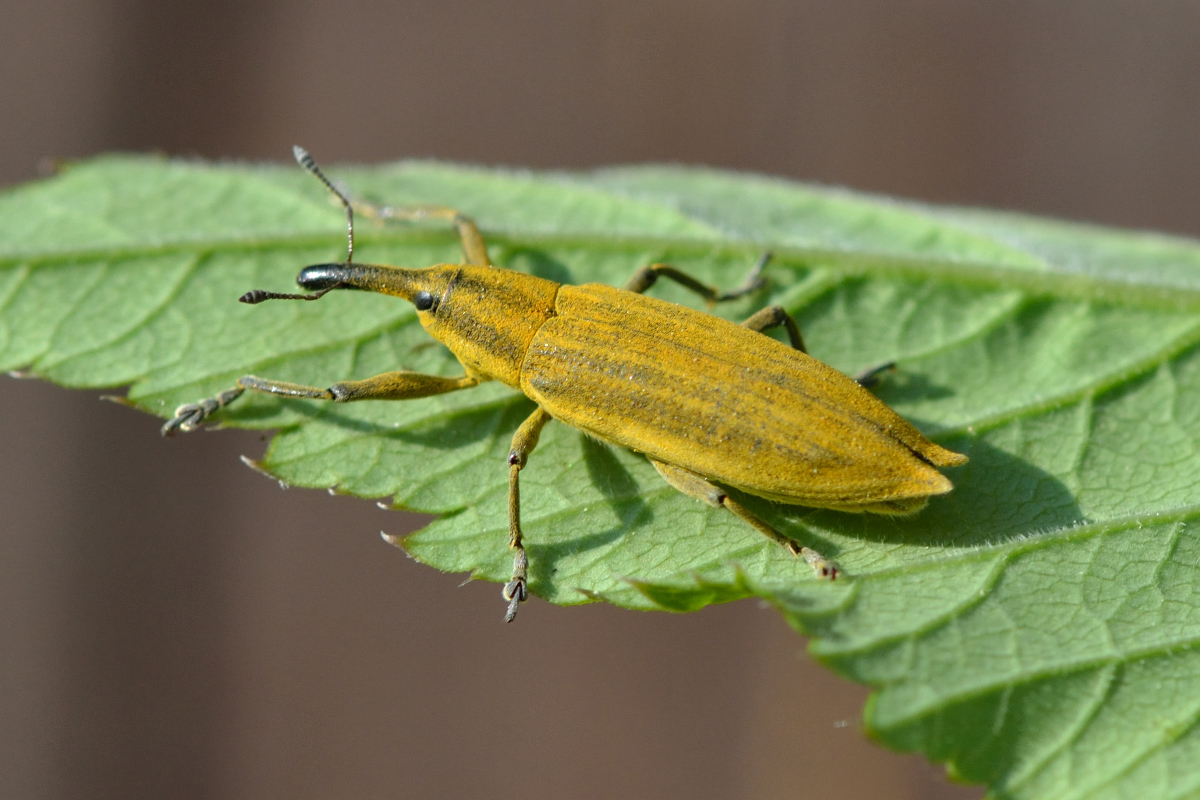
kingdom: Animalia
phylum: Arthropoda
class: Insecta
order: Coleoptera
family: Curculionidae
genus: Lixus
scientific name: Lixus iridis
